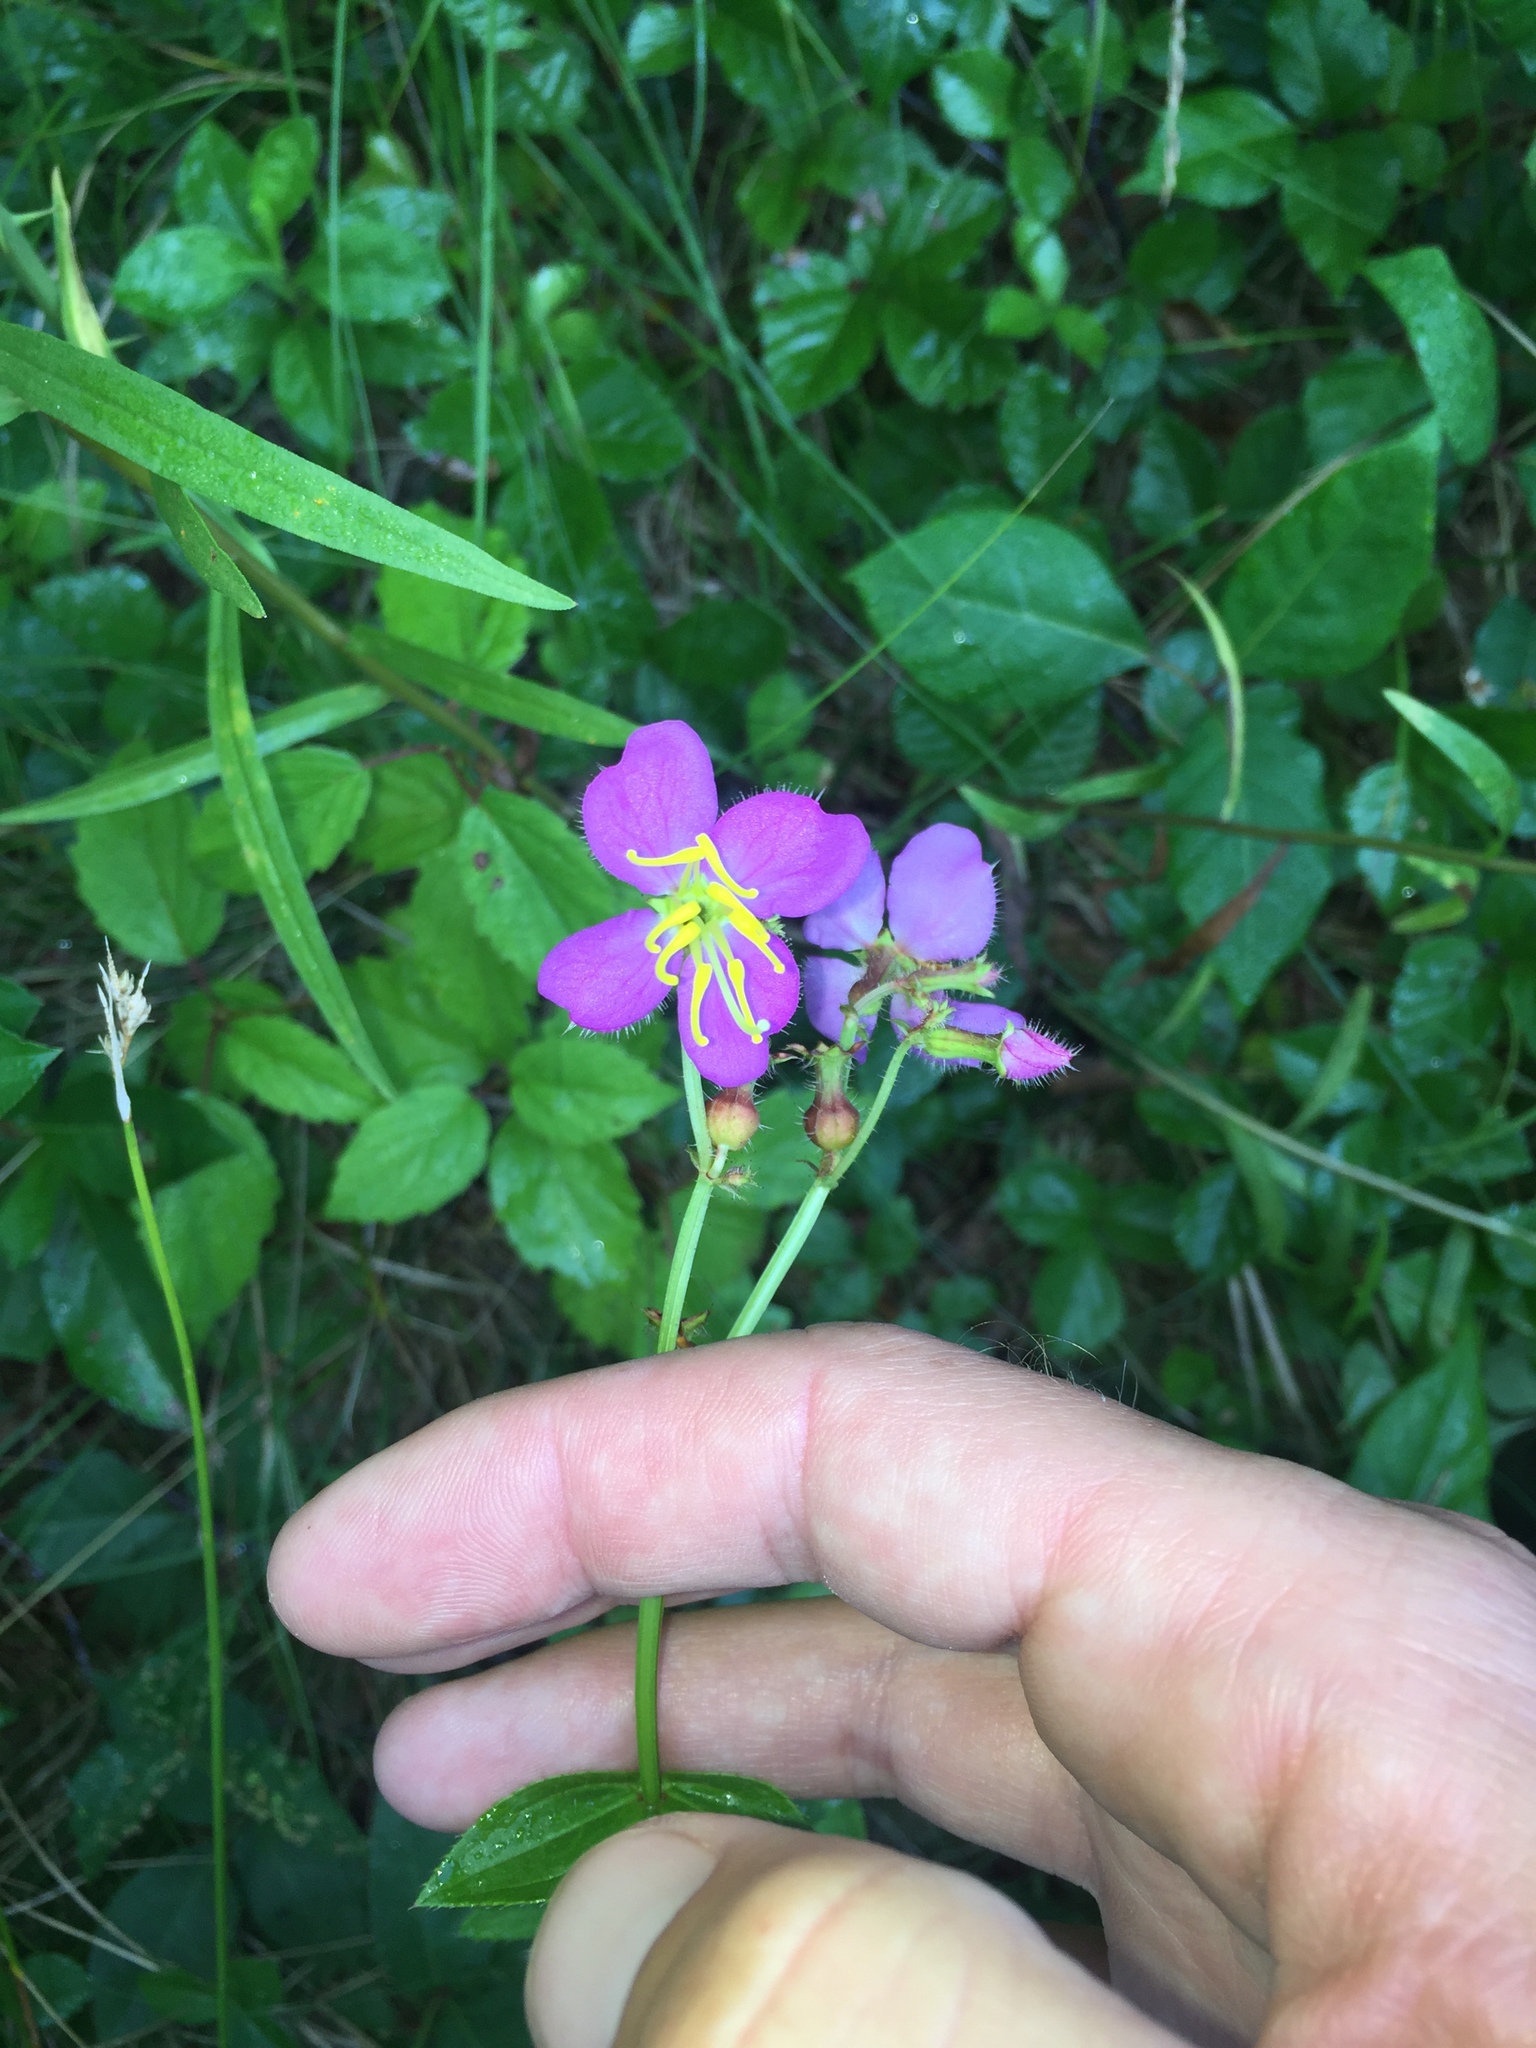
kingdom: Plantae
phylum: Tracheophyta
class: Magnoliopsida
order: Myrtales
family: Melastomataceae
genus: Rhexia
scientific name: Rhexia virginica
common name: Common meadow beauty
